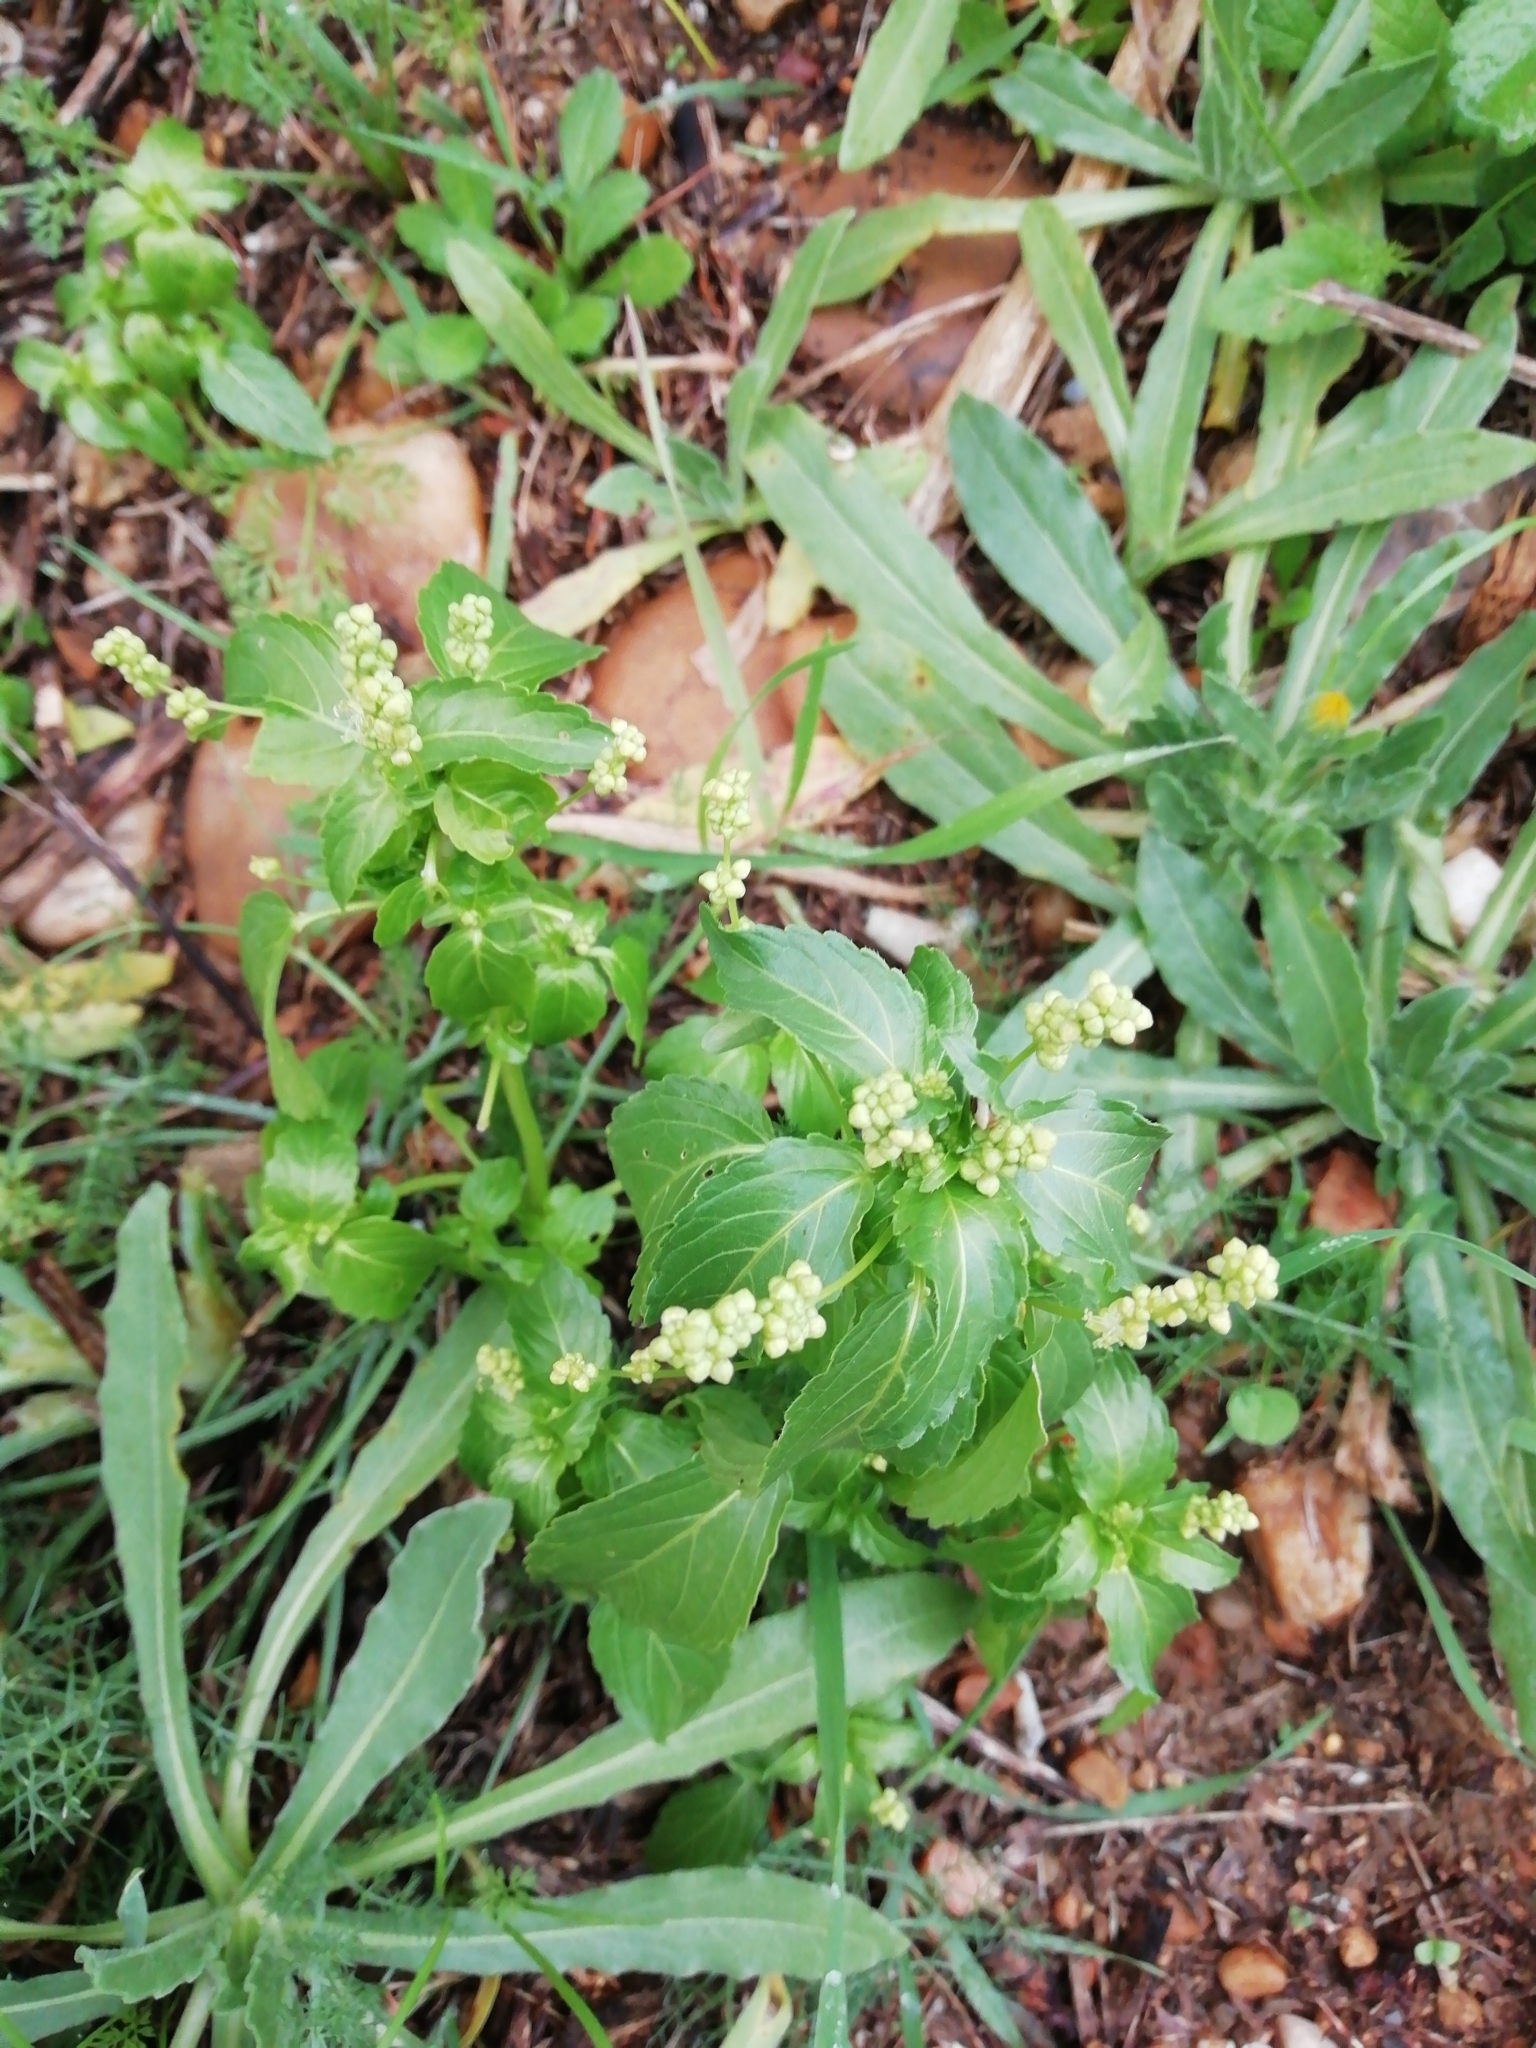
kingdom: Plantae
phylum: Tracheophyta
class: Magnoliopsida
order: Malpighiales
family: Euphorbiaceae
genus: Mercurialis
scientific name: Mercurialis annua
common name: Annual mercury
